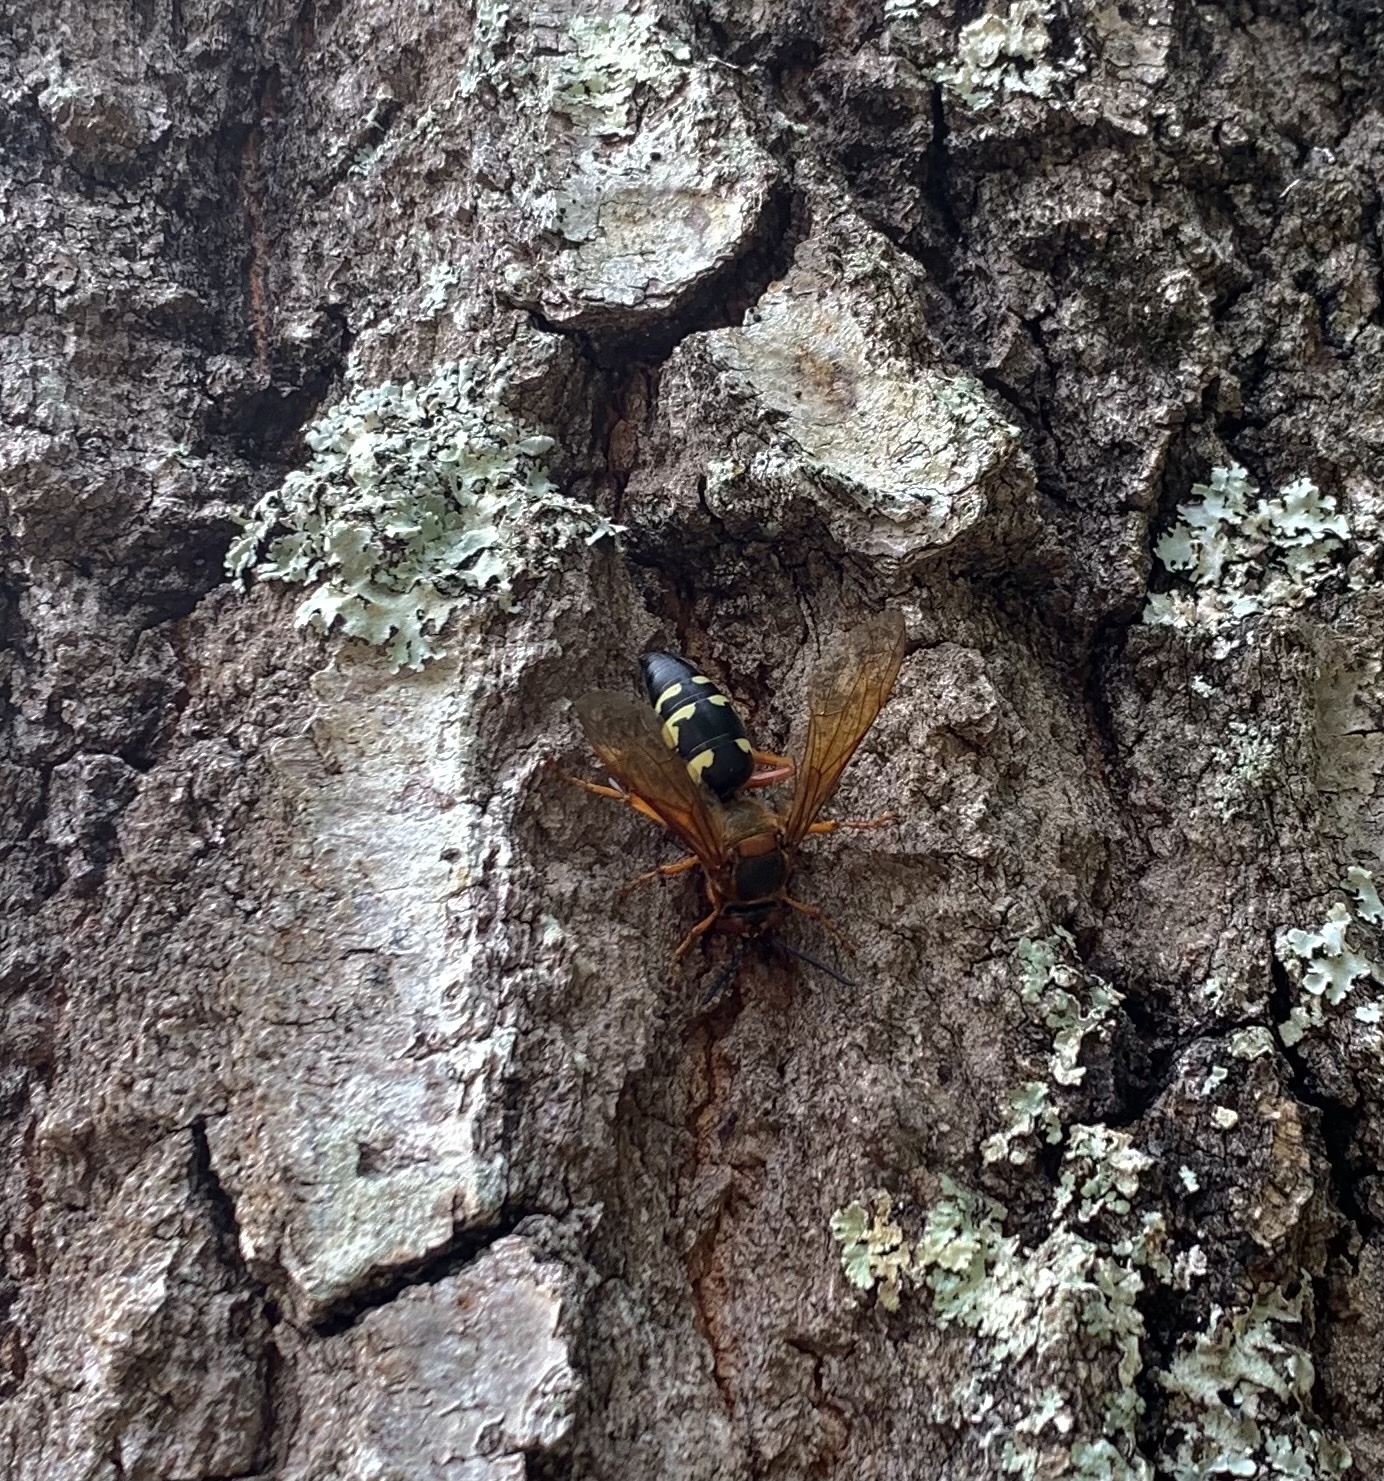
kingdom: Animalia
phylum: Arthropoda
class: Insecta
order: Hymenoptera
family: Crabronidae
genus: Sphecius
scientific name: Sphecius speciosus
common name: Cicada killer
